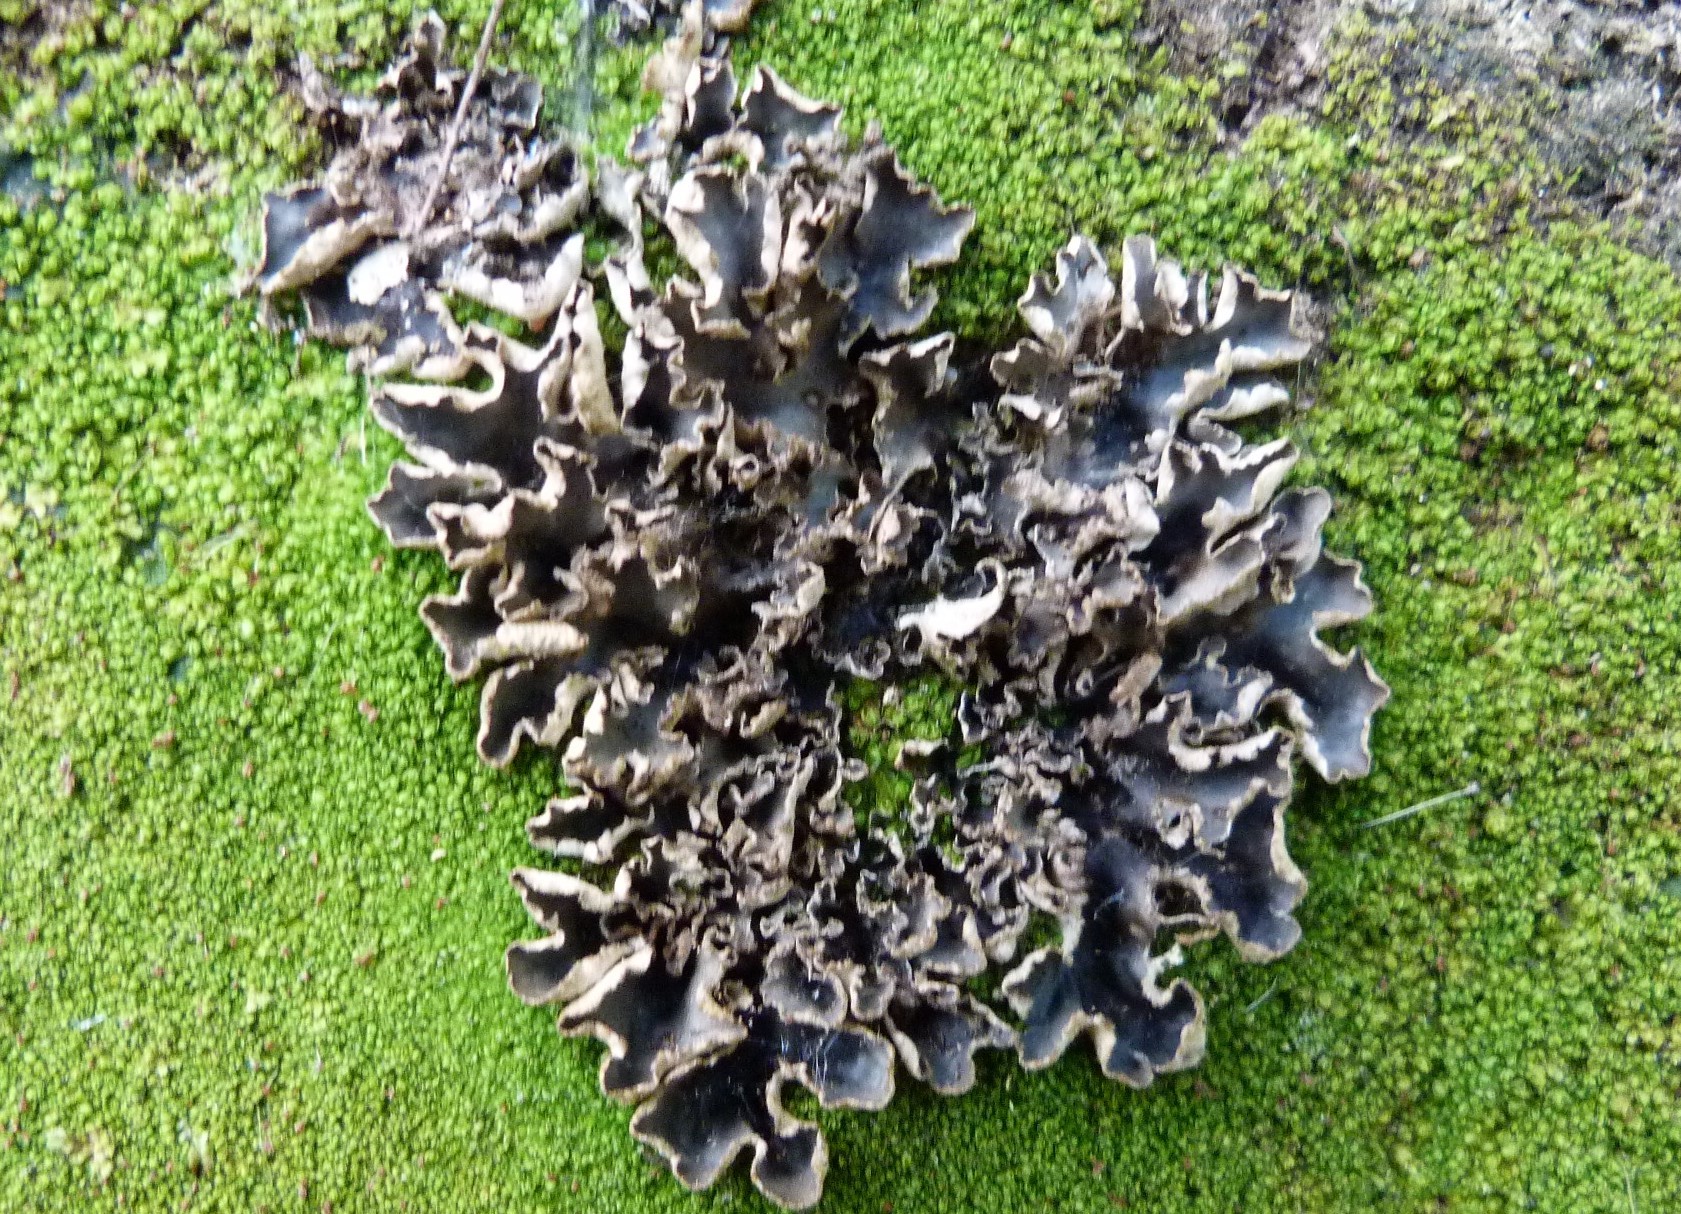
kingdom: Fungi
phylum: Ascomycota
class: Lecanoromycetes
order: Peltigerales
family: Peltigeraceae
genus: Peltigera
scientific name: Peltigera hymenina
